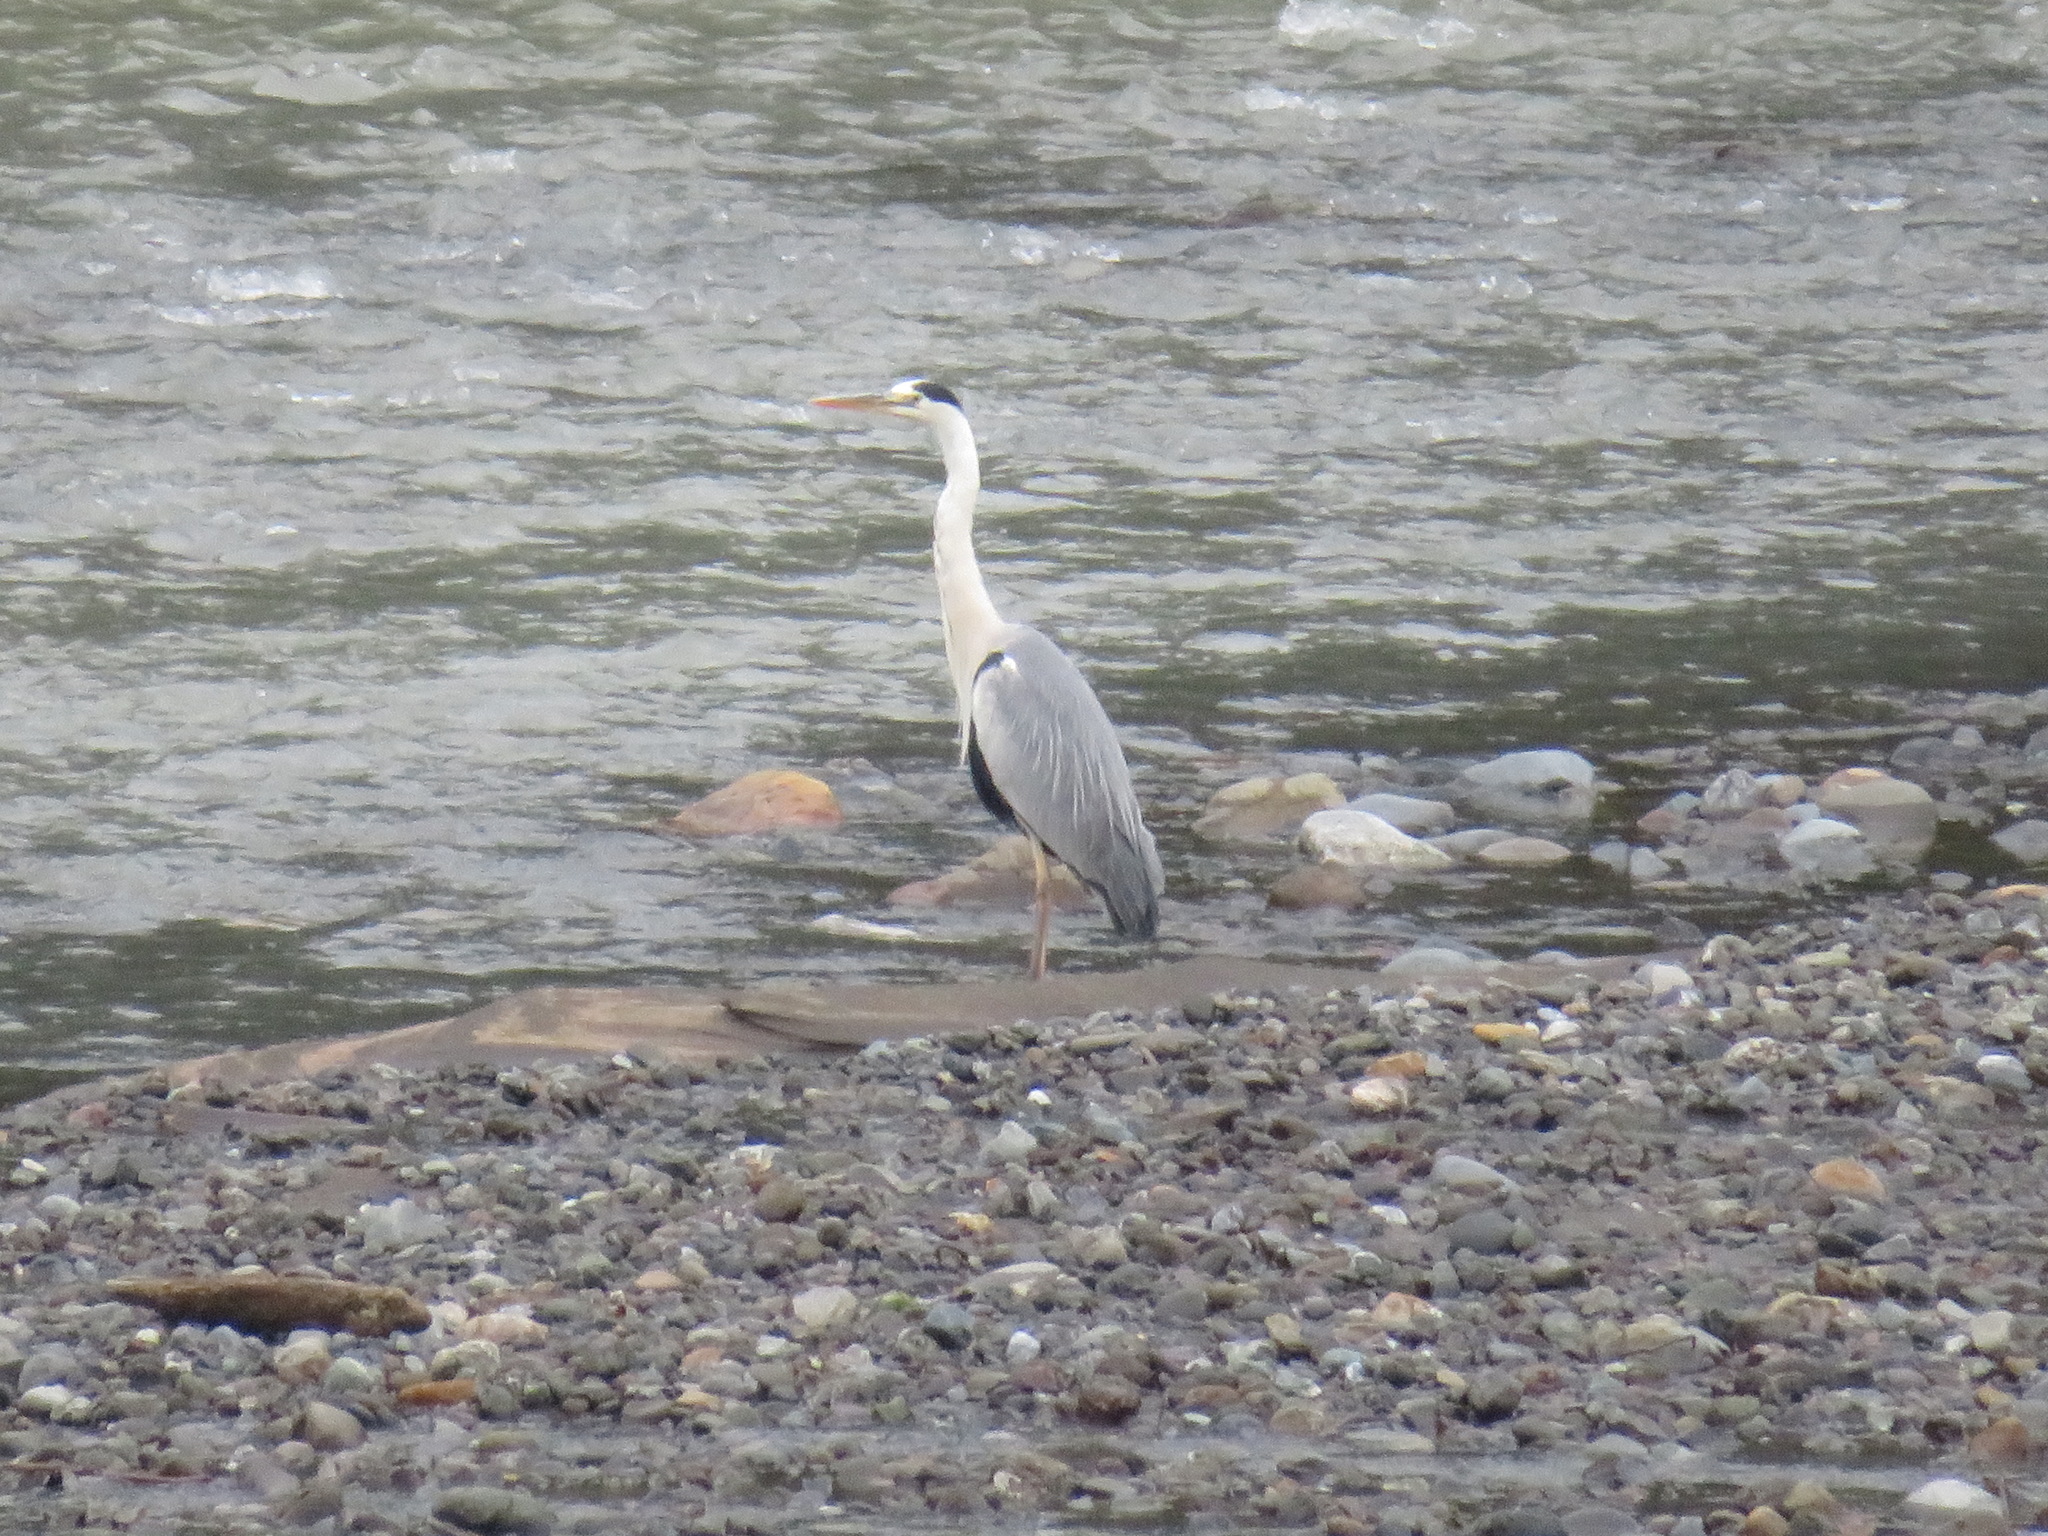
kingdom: Animalia
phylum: Chordata
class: Aves
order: Pelecaniformes
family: Ardeidae
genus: Ardea
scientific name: Ardea cinerea
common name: Grey heron
